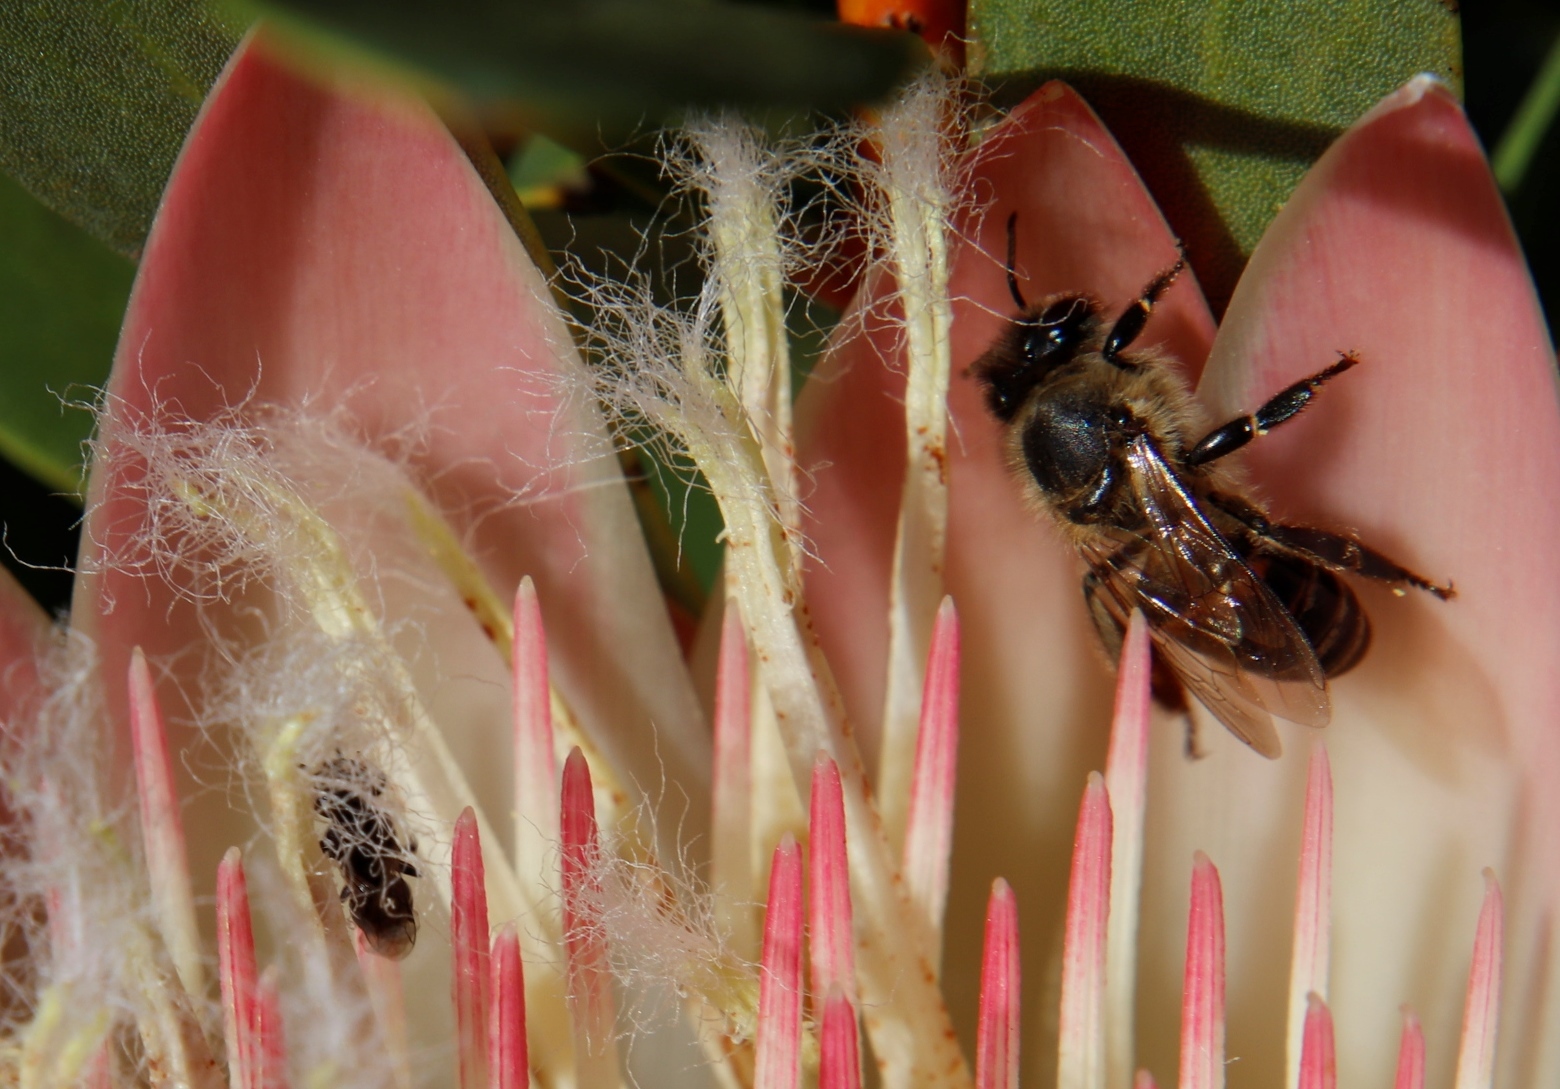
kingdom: Animalia
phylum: Arthropoda
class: Insecta
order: Hymenoptera
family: Apidae
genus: Apis
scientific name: Apis mellifera
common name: Honey bee
